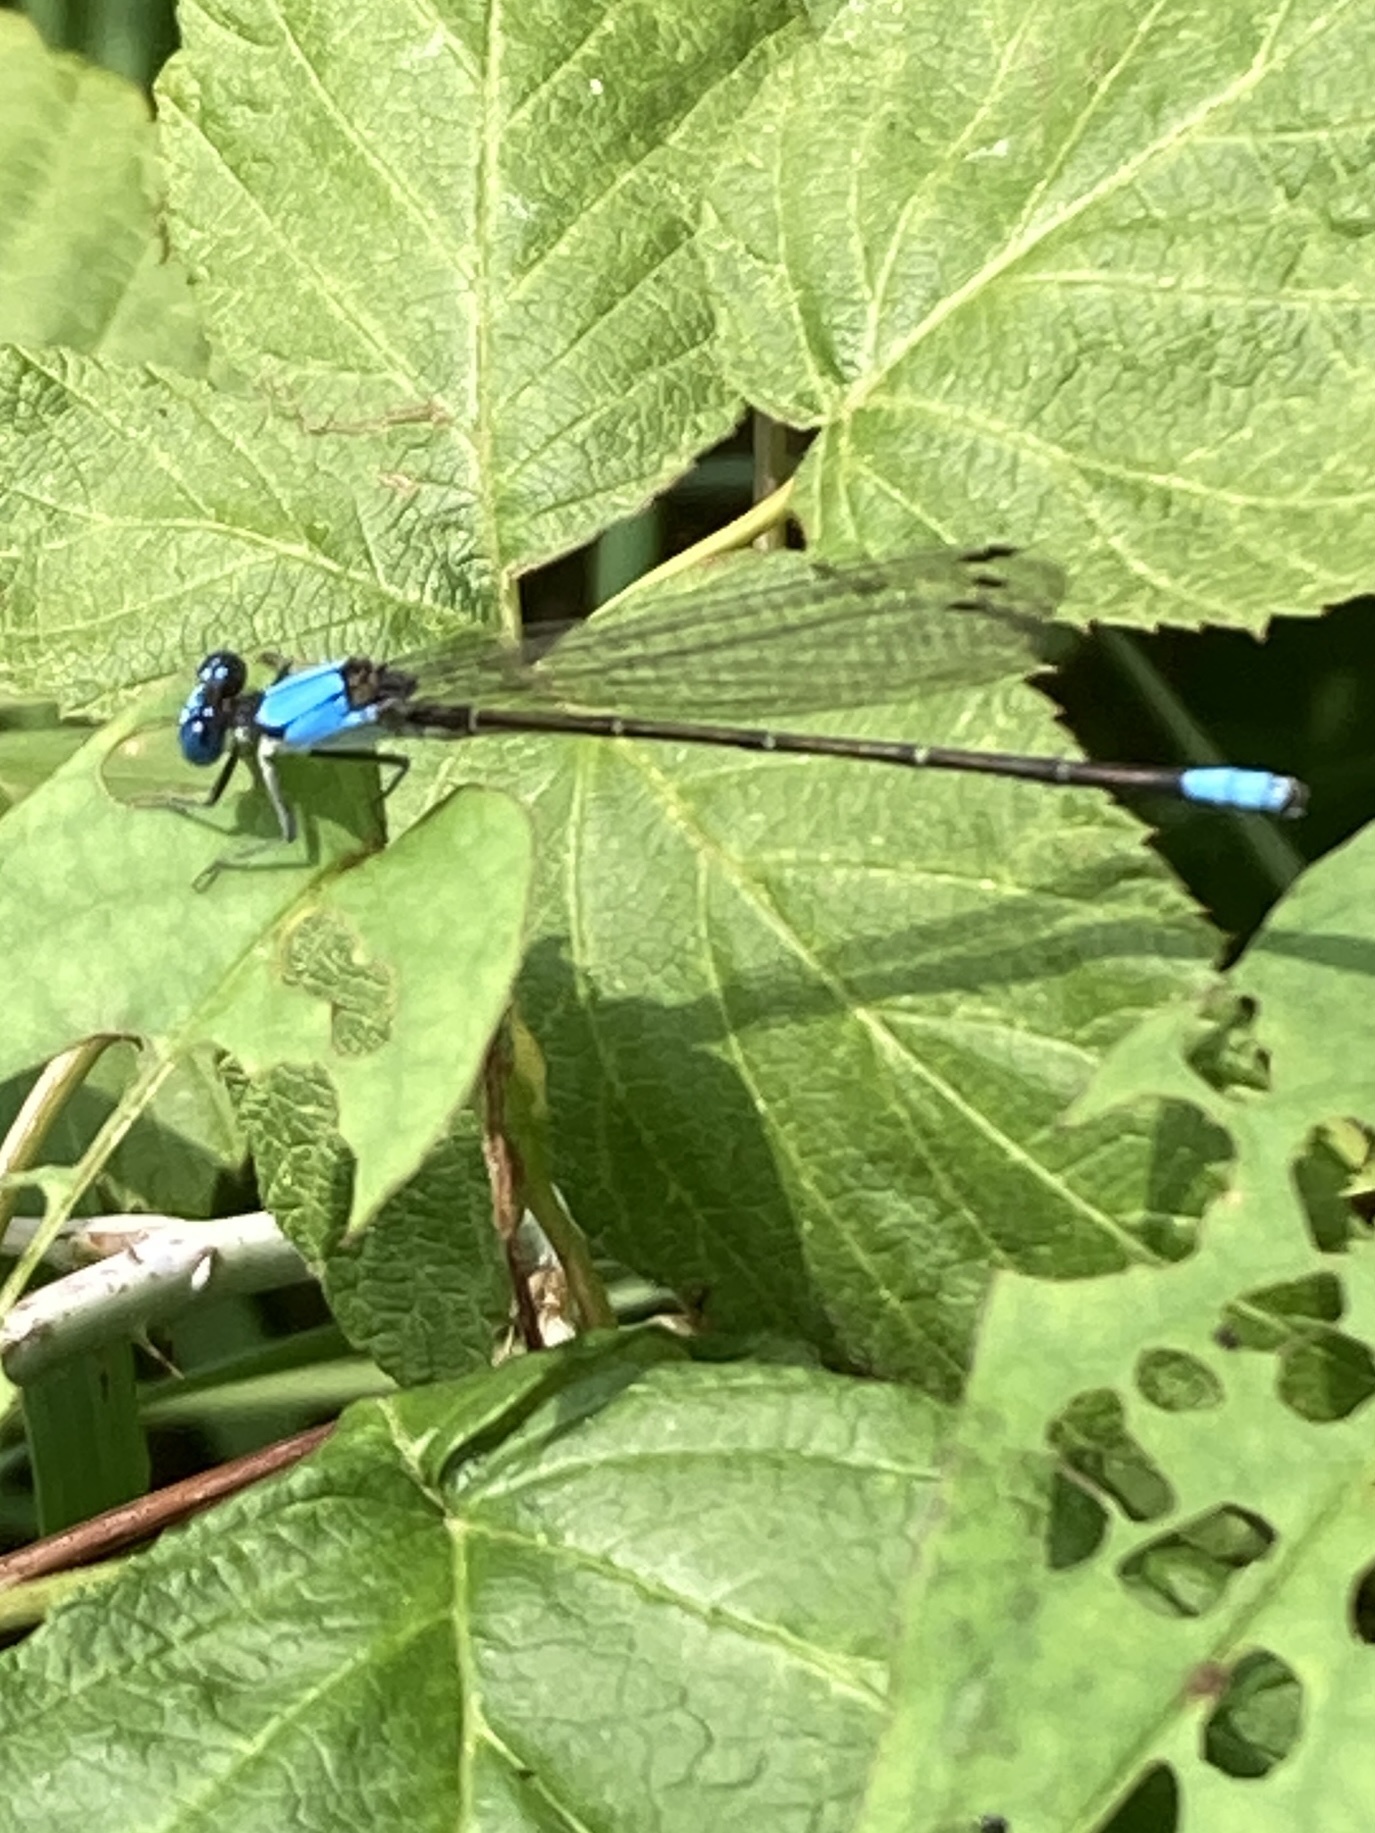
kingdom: Animalia
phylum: Arthropoda
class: Insecta
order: Odonata
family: Coenagrionidae
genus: Argia
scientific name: Argia apicalis
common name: Blue-fronted dancer
